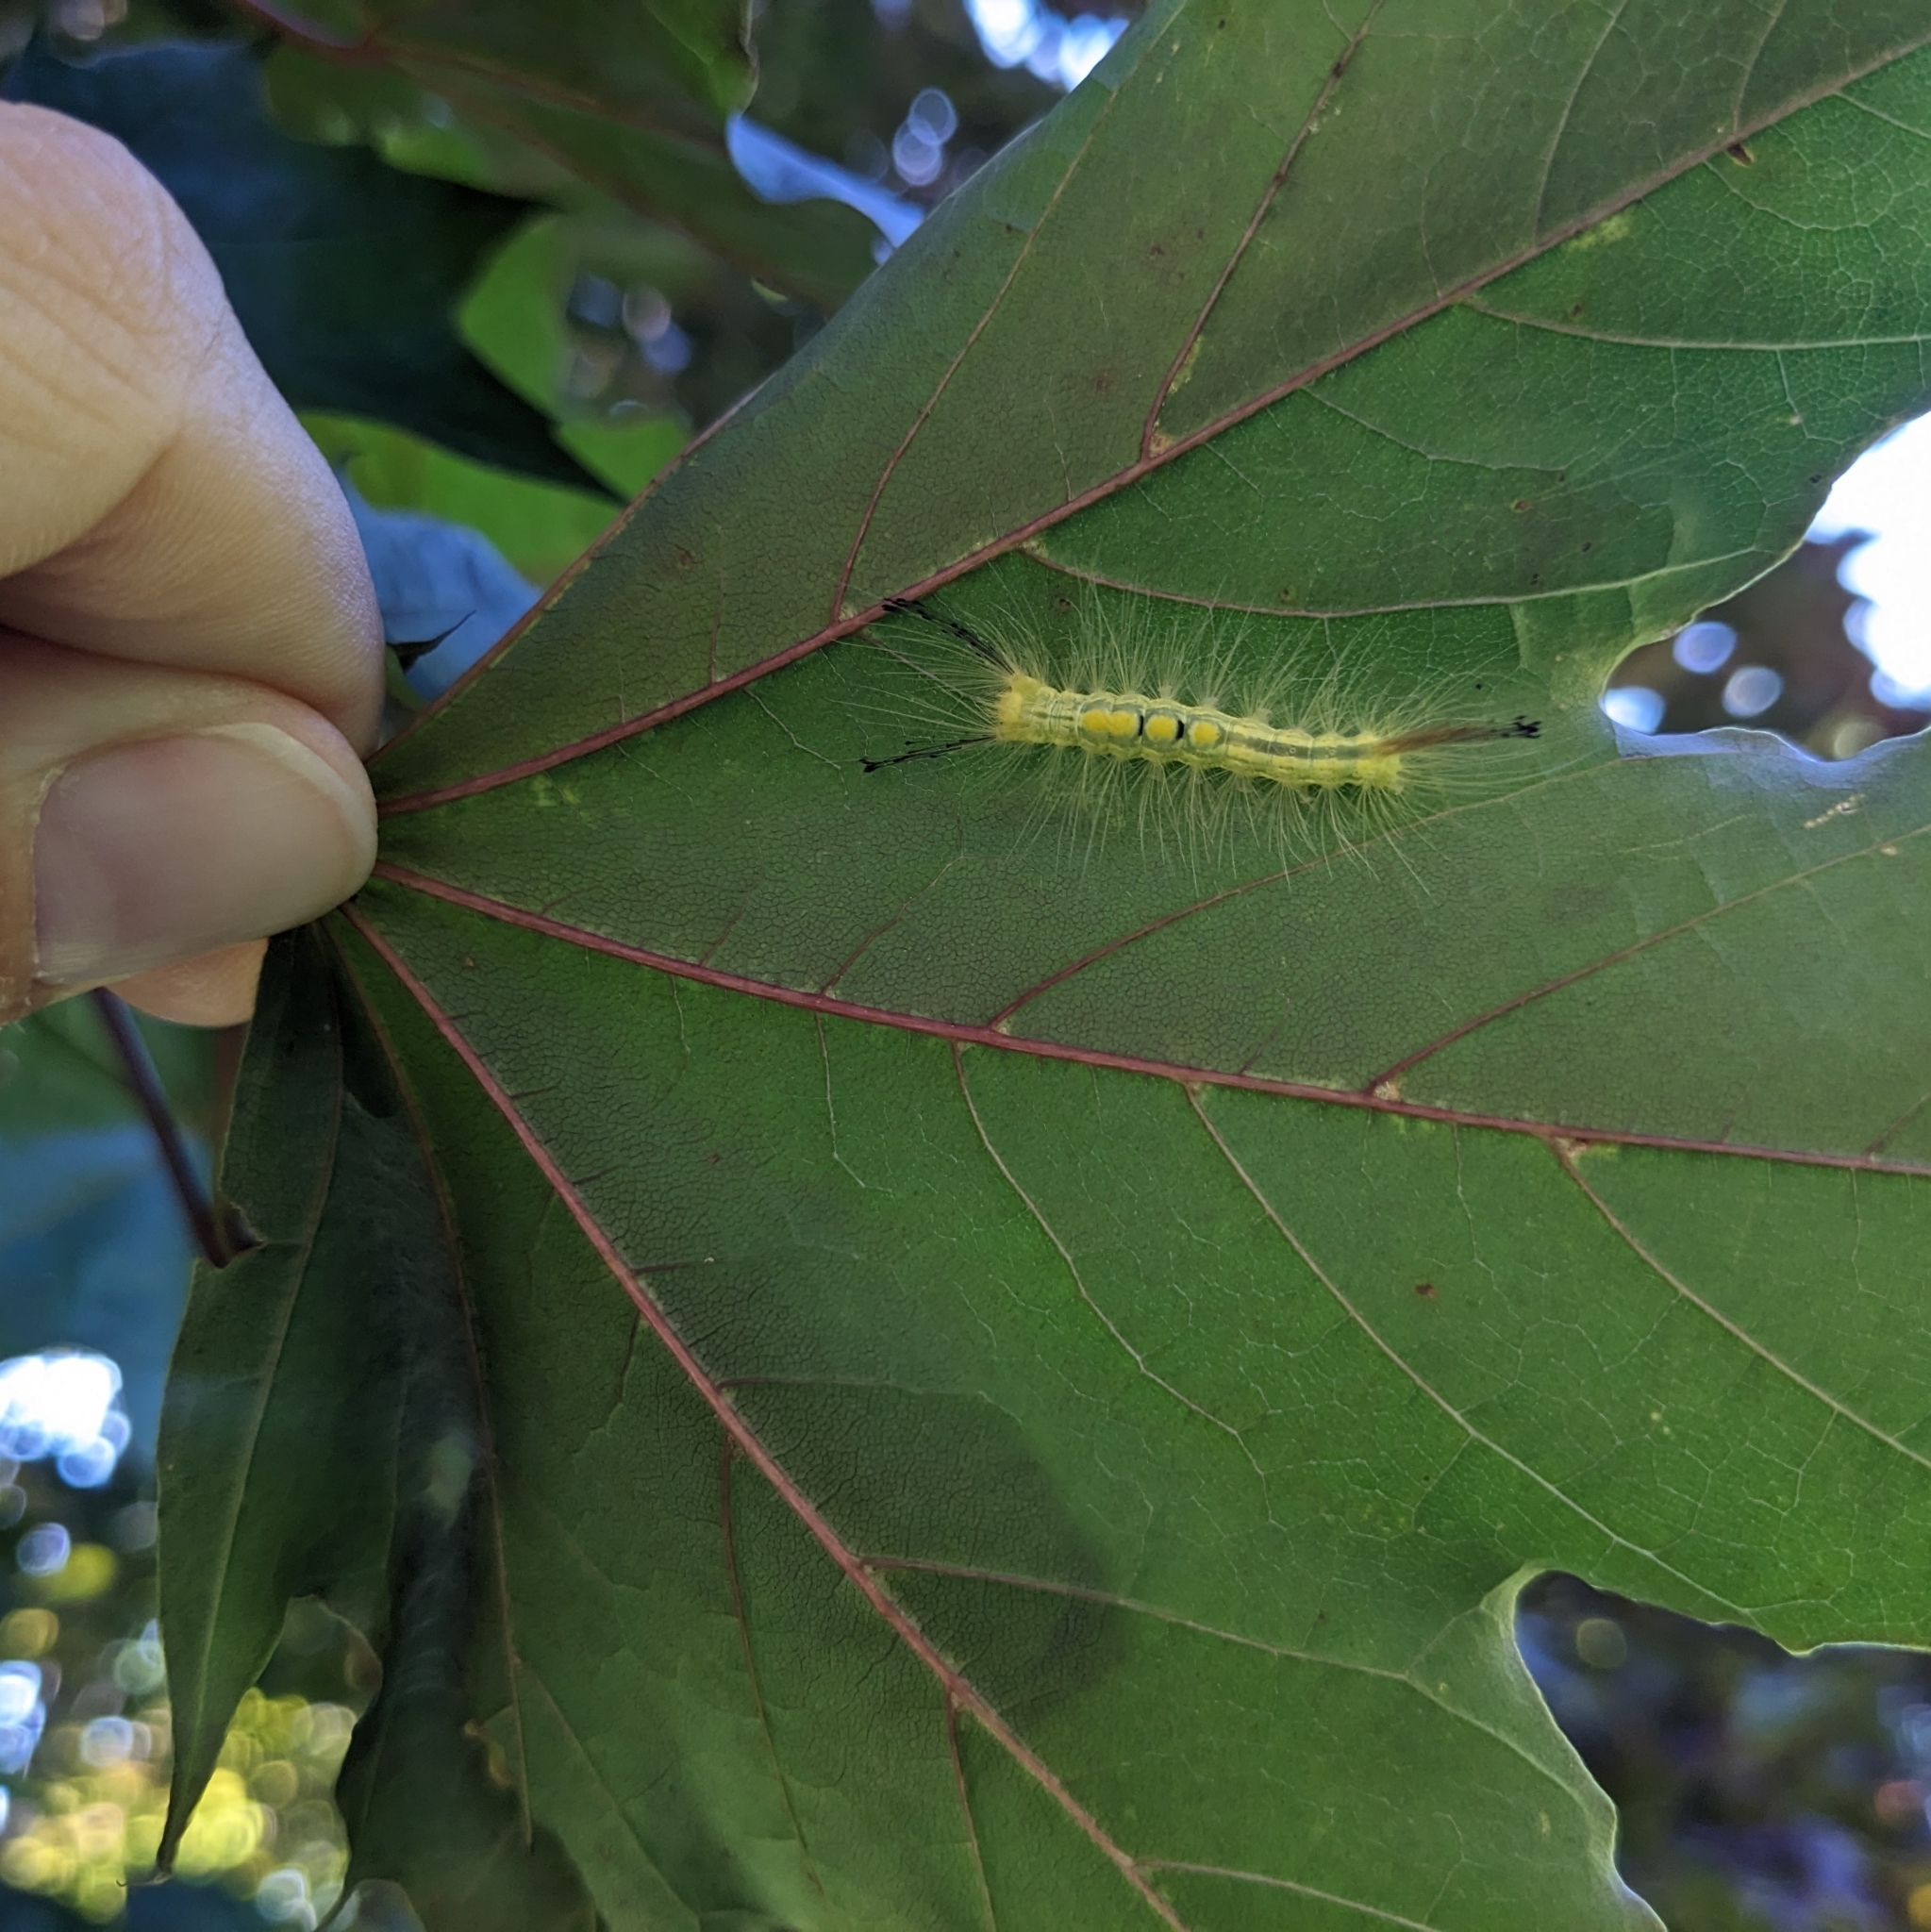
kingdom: Animalia
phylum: Arthropoda
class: Insecta
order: Lepidoptera
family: Erebidae
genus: Orgyia
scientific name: Orgyia definita
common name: Definite tussock moth
